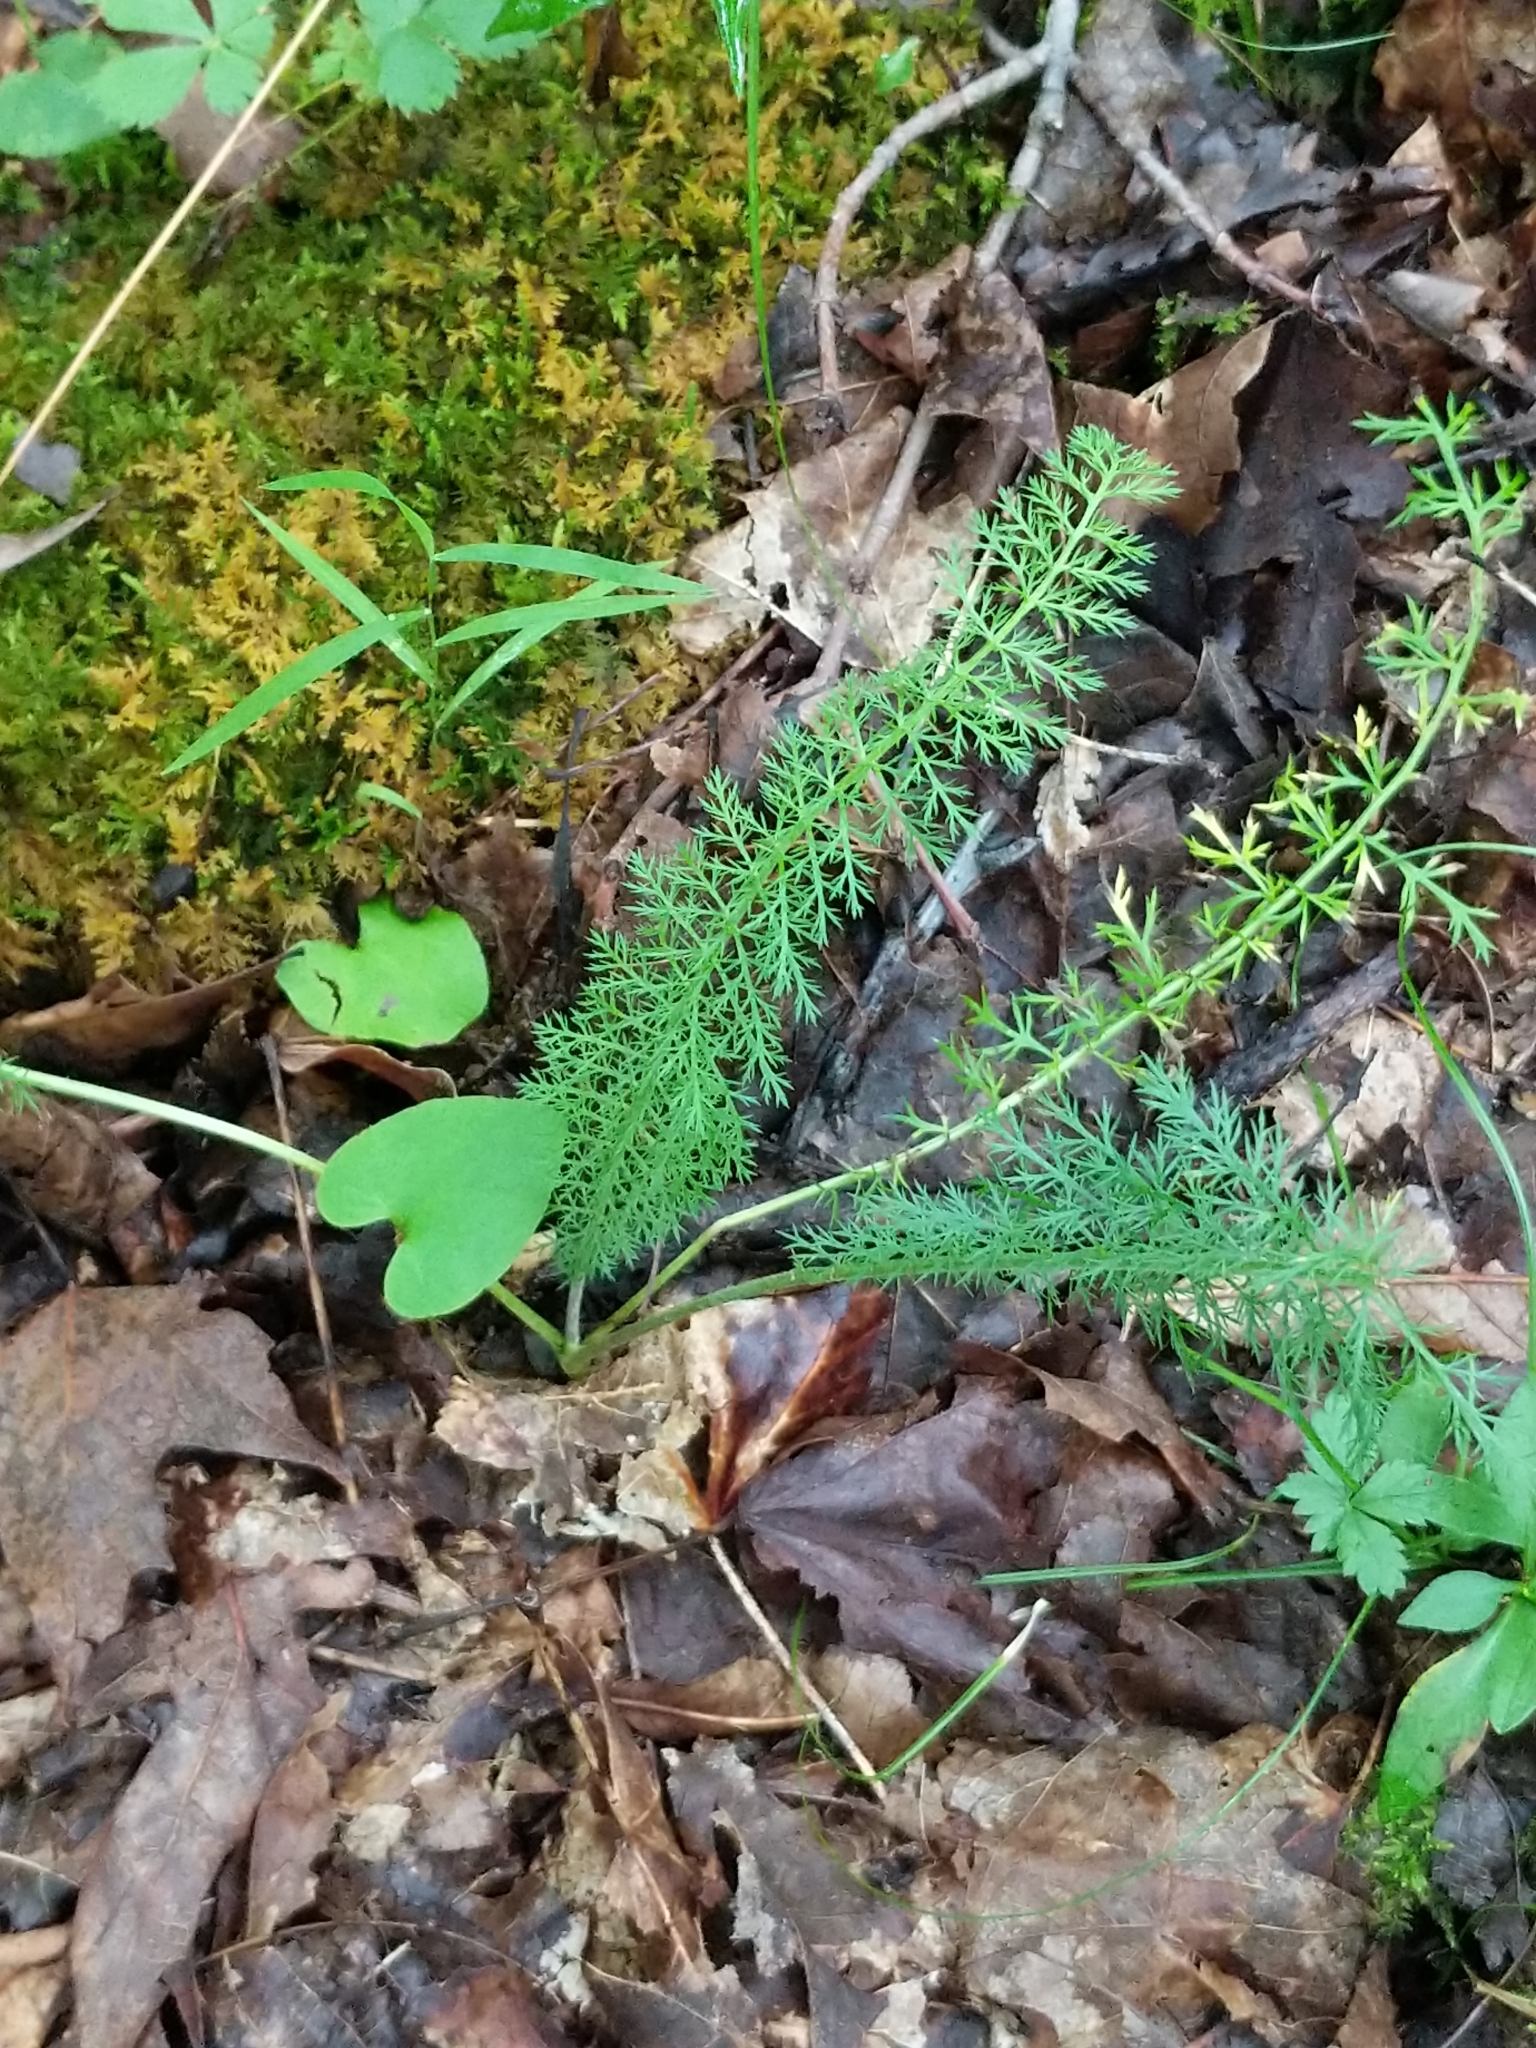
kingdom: Plantae
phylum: Tracheophyta
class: Magnoliopsida
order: Asterales
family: Asteraceae
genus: Achillea
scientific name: Achillea millefolium
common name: Yarrow
